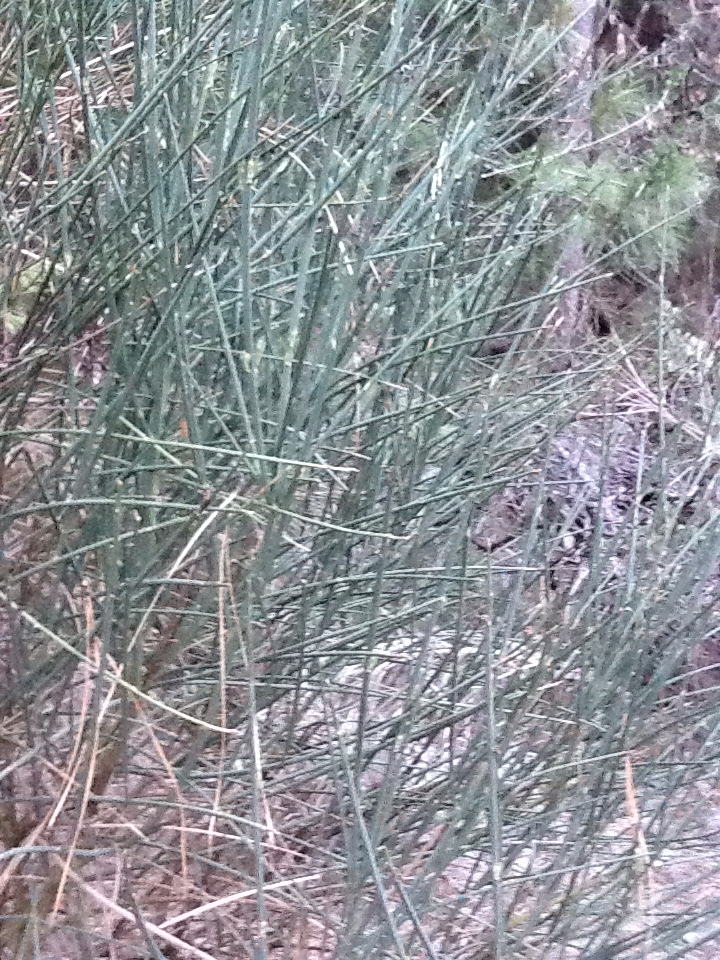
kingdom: Plantae
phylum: Tracheophyta
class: Magnoliopsida
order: Fabales
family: Fabaceae
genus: Spartium
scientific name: Spartium junceum
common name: Spanish broom
